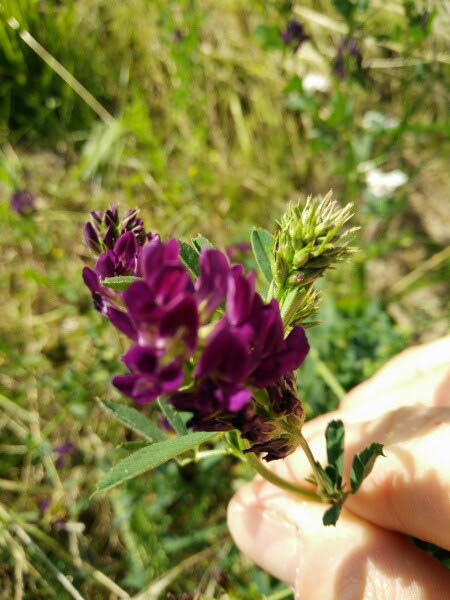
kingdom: Plantae
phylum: Tracheophyta
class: Magnoliopsida
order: Fabales
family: Fabaceae
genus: Medicago
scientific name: Medicago sativa
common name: Alfalfa
